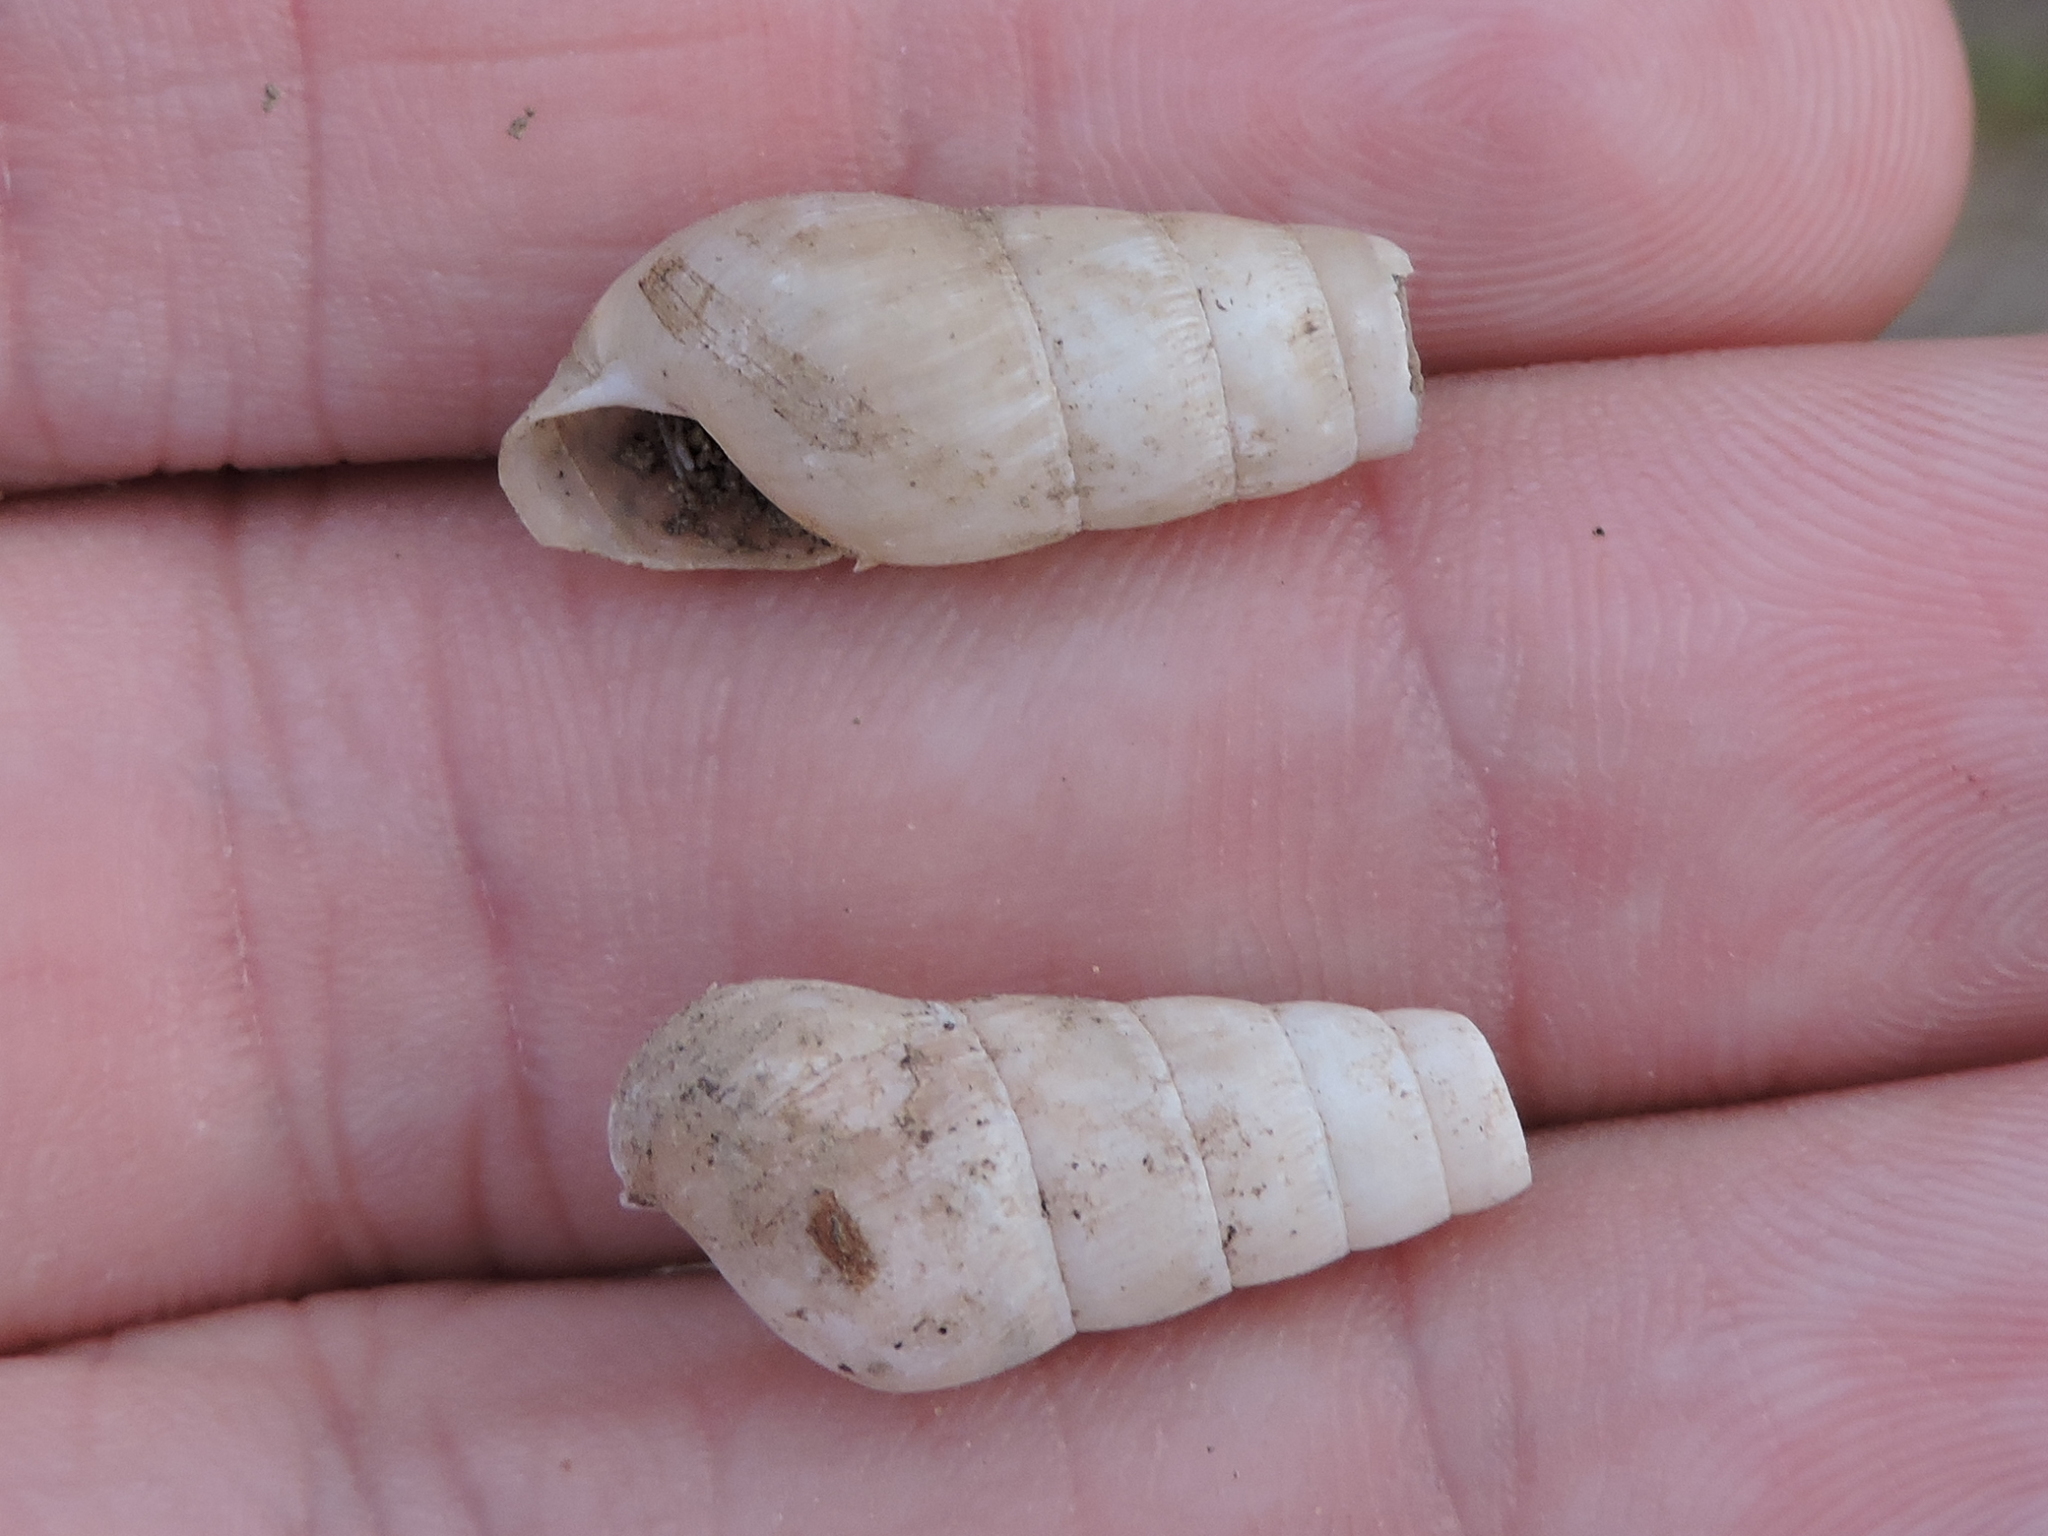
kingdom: Animalia
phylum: Mollusca
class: Gastropoda
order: Stylommatophora
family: Achatinidae
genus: Rumina
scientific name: Rumina decollata
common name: Decollate snail
